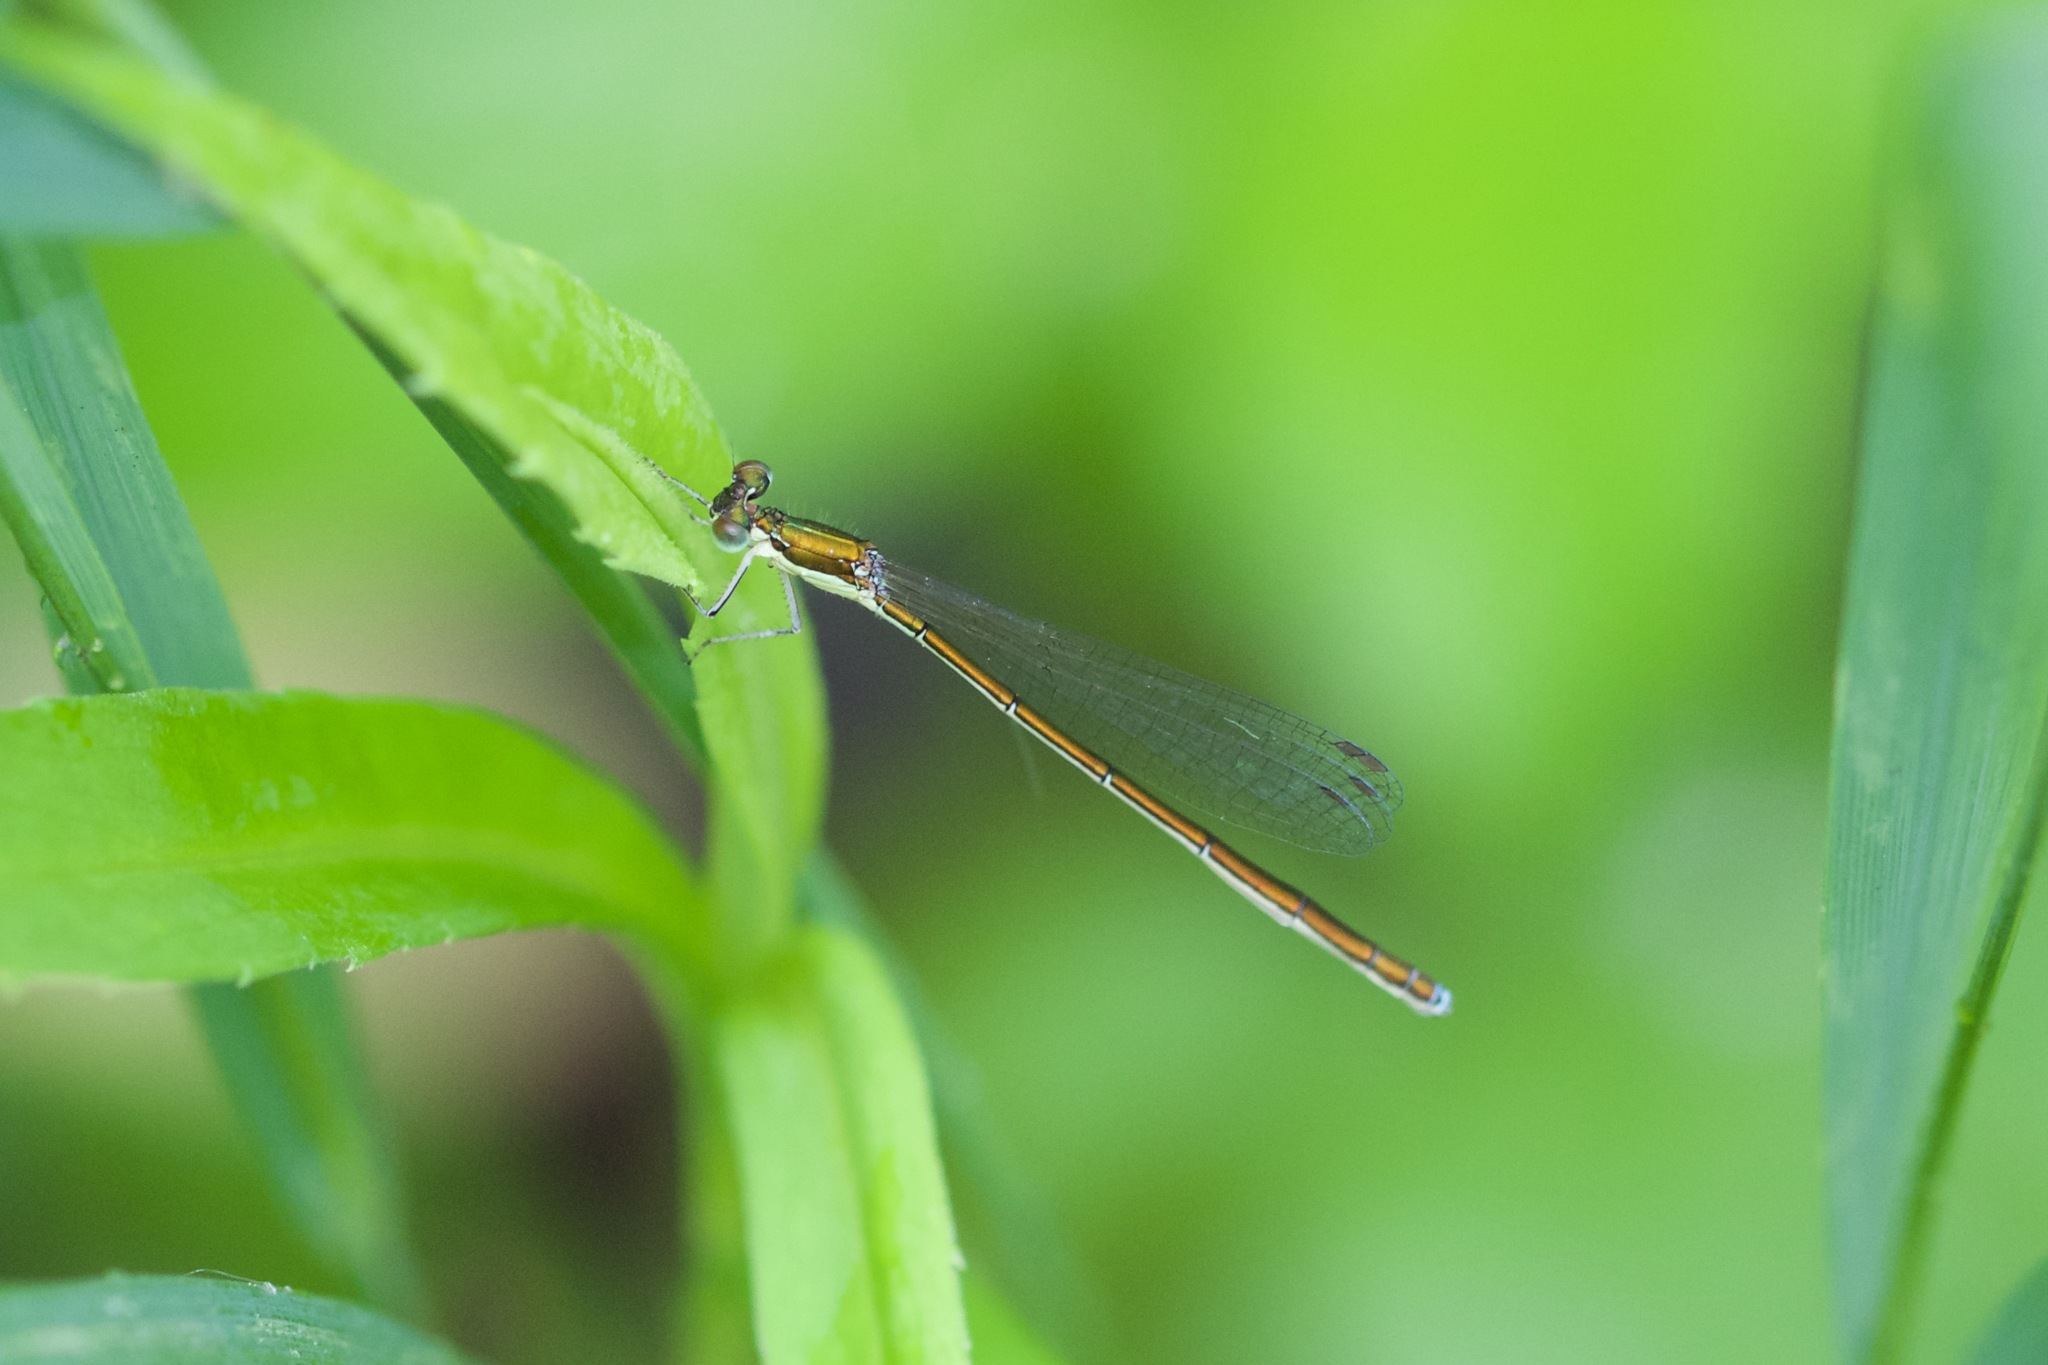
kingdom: Animalia
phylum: Arthropoda
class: Insecta
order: Odonata
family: Coenagrionidae
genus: Nehalennia
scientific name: Nehalennia irene
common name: Sedge sprite
